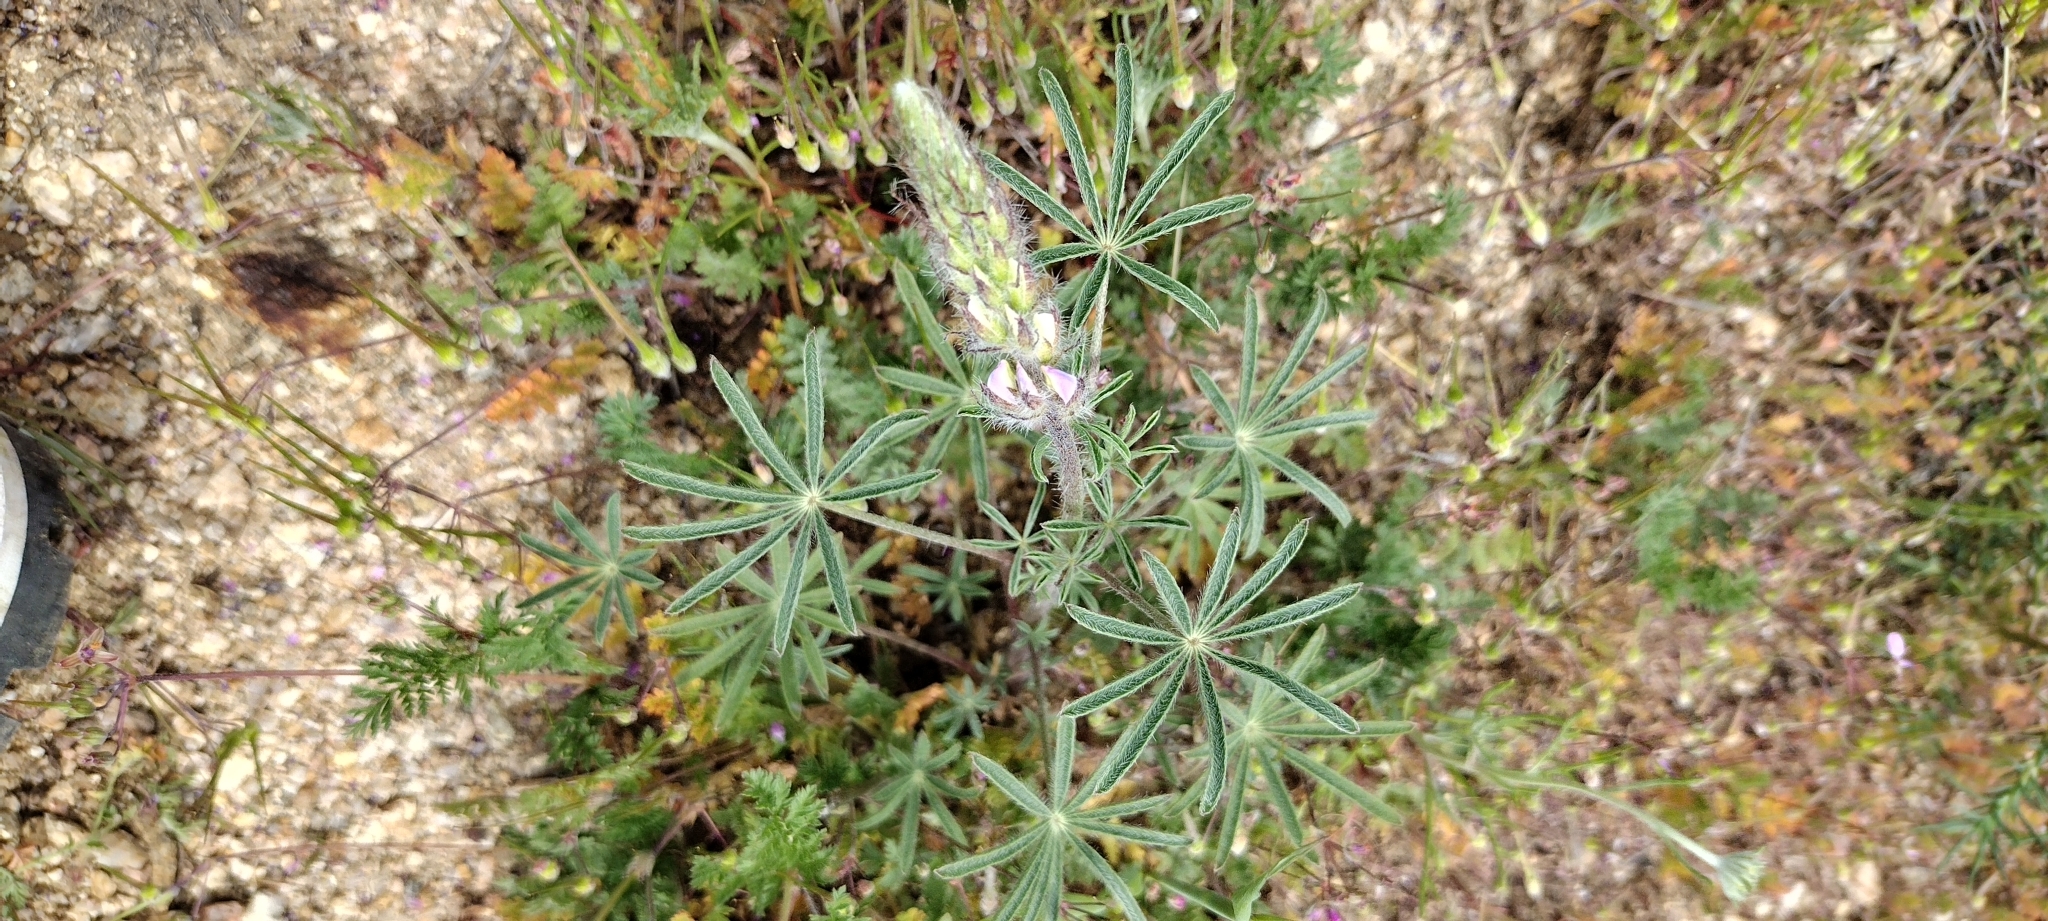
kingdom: Plantae
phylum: Tracheophyta
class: Magnoliopsida
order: Fabales
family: Fabaceae
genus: Lupinus
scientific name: Lupinus sparsiflorus
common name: Coulter's lupine
